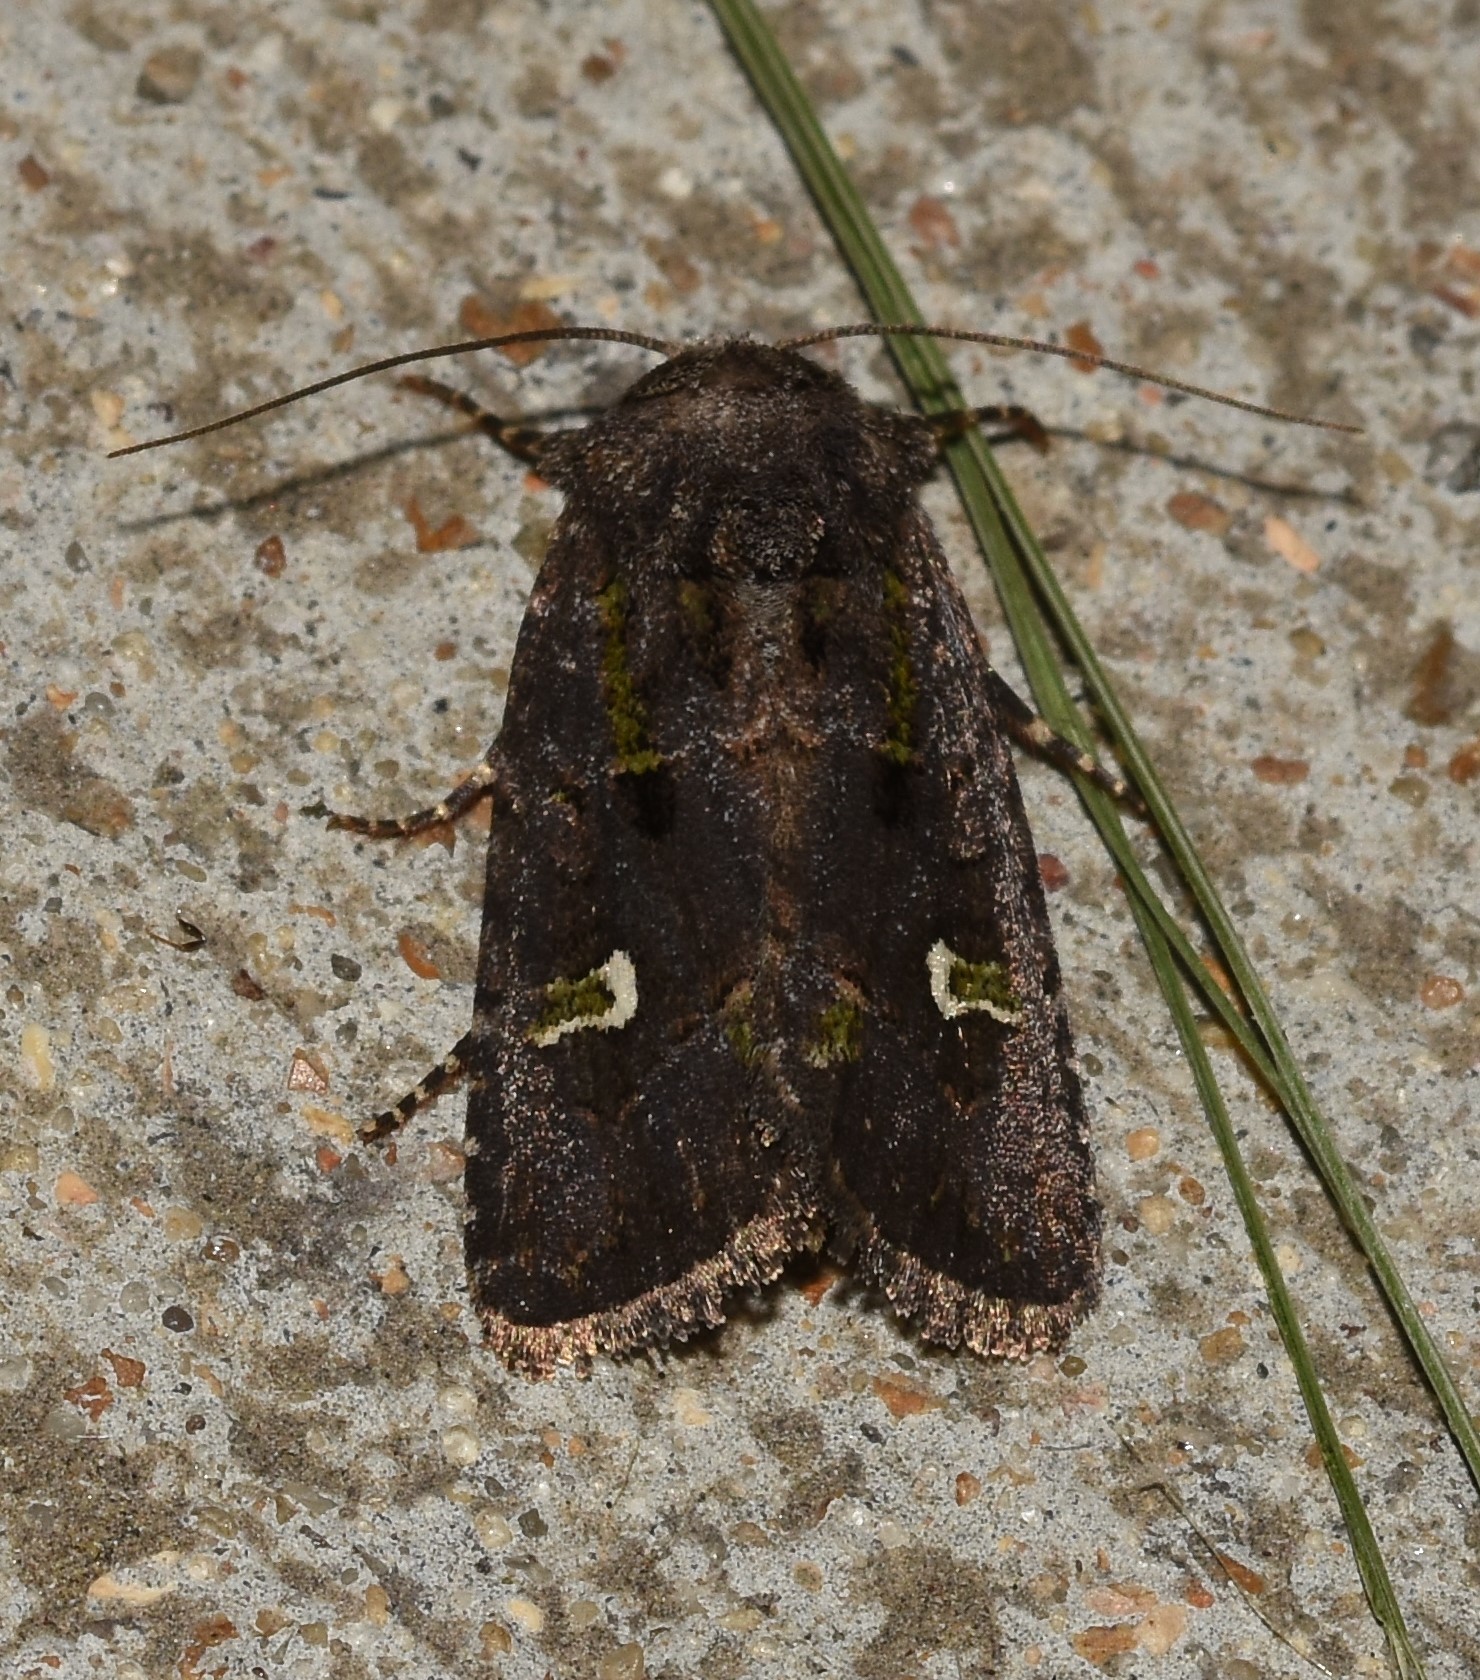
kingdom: Animalia
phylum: Arthropoda
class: Insecta
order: Lepidoptera
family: Noctuidae
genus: Lacinipolia
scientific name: Lacinipolia renigera
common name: Kidney-spotted minor
